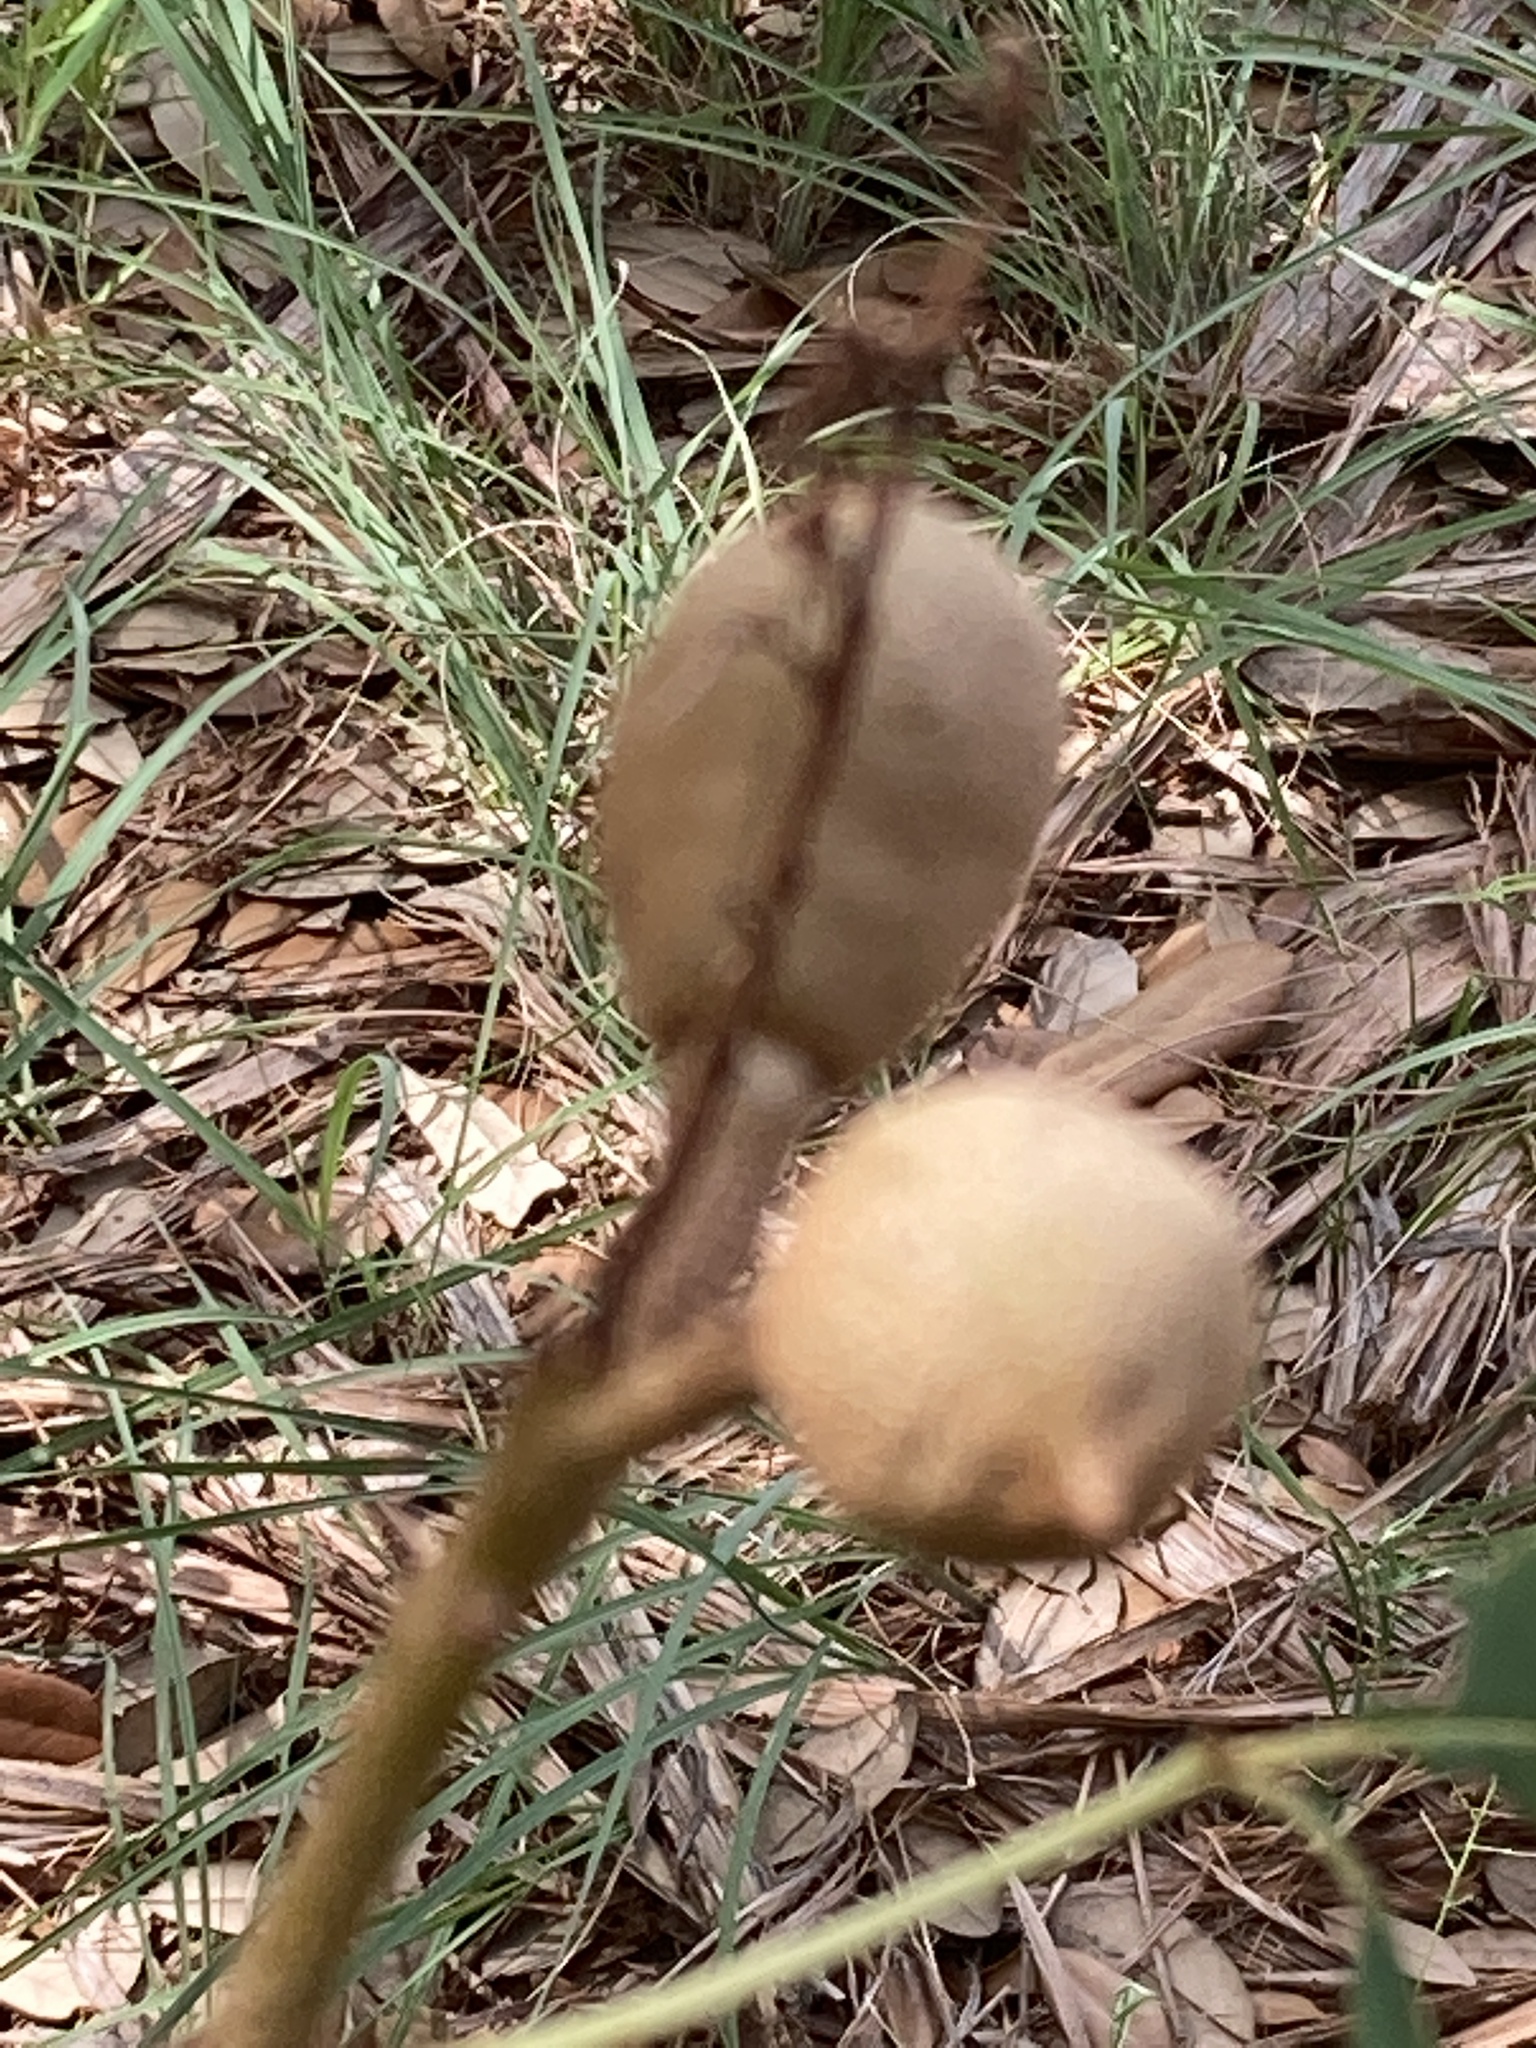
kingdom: Plantae
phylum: Tracheophyta
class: Magnoliopsida
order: Sapindales
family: Sapindaceae
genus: Aesculus
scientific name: Aesculus pavia
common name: Red buckeye
